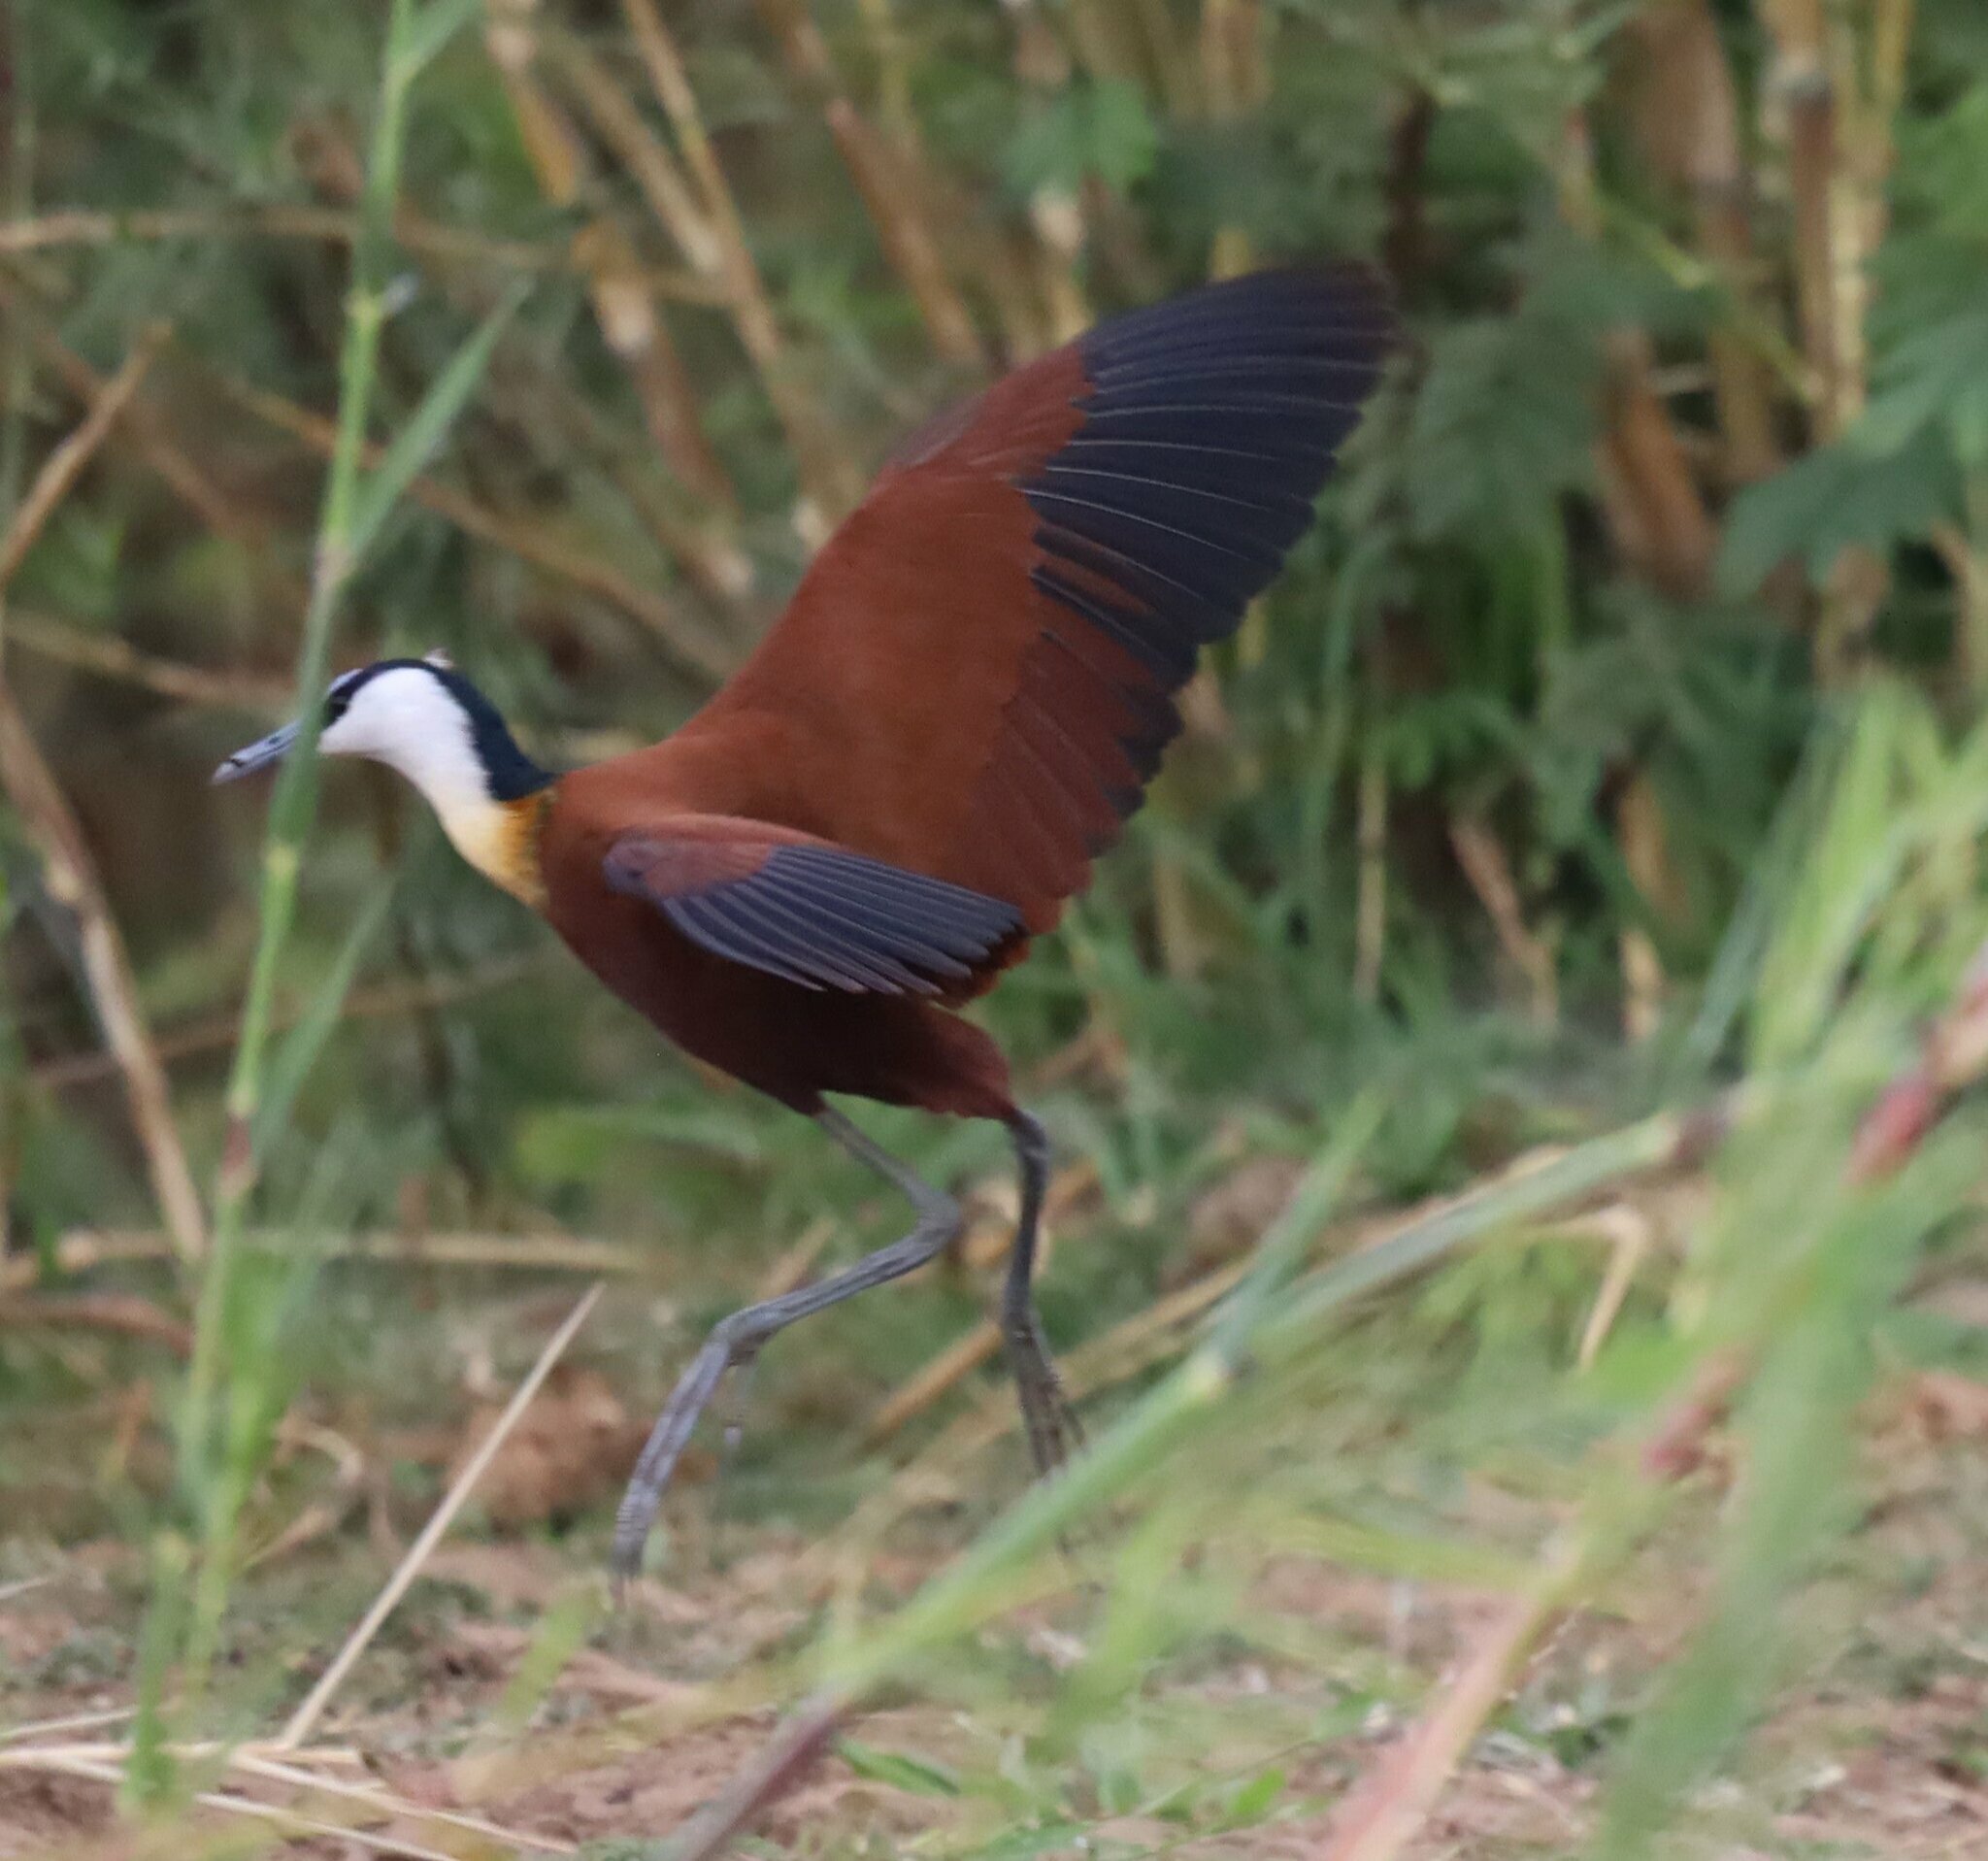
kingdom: Animalia
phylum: Chordata
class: Aves
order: Charadriiformes
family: Jacanidae
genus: Actophilornis
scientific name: Actophilornis africanus
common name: African jacana
